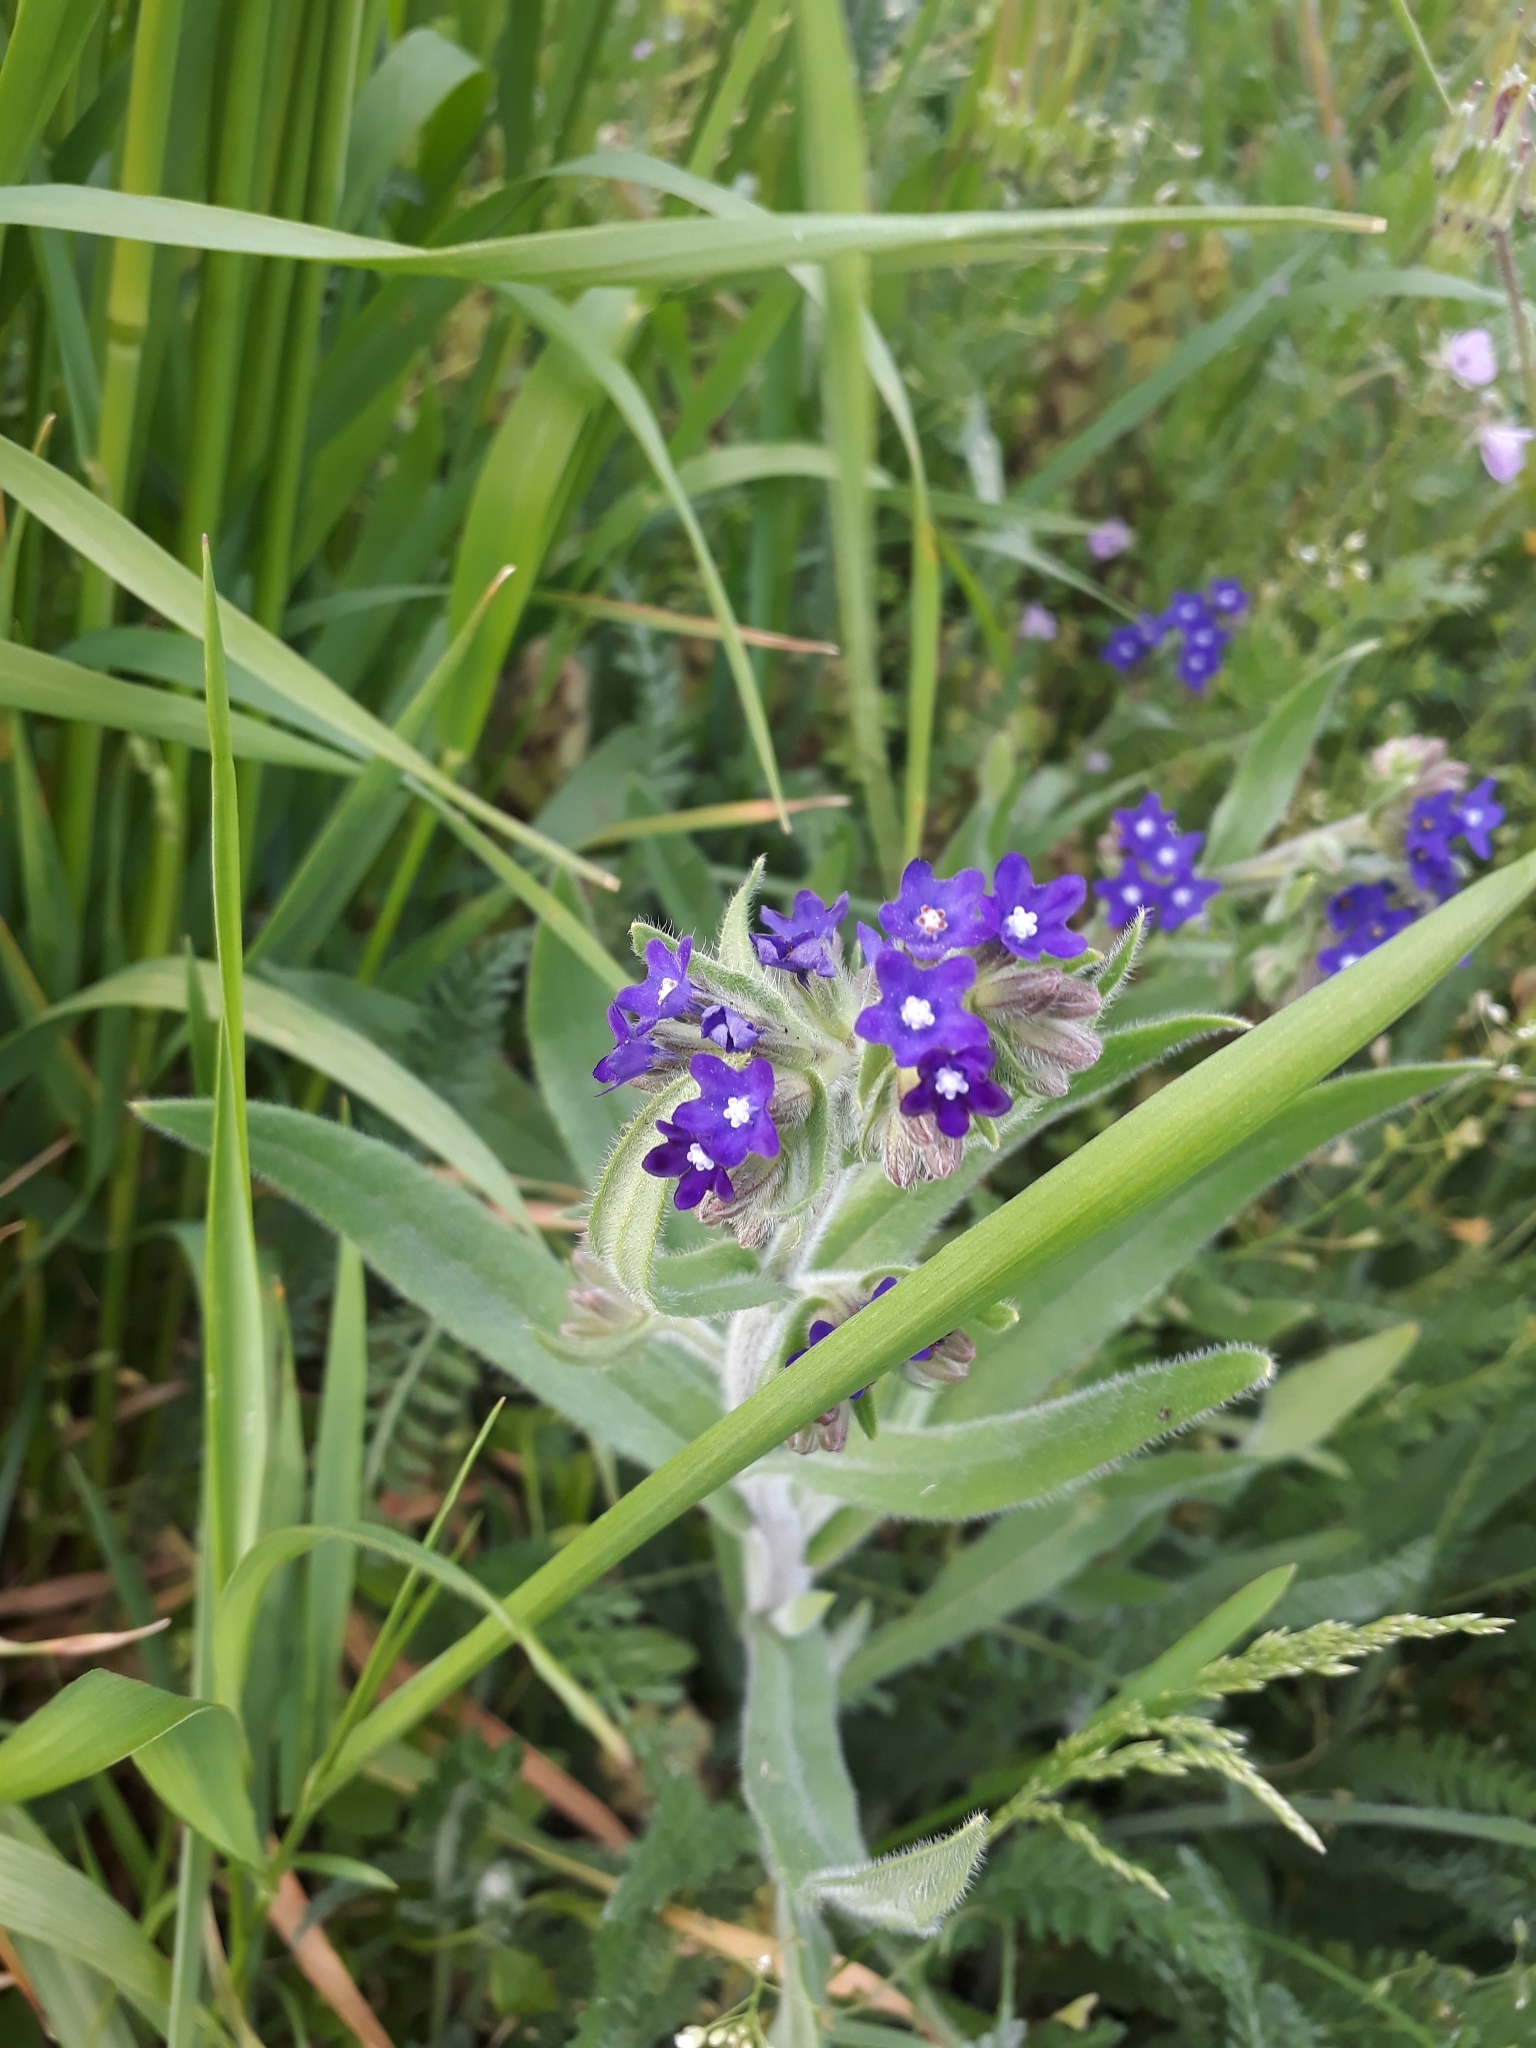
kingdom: Plantae
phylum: Tracheophyta
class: Magnoliopsida
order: Boraginales
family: Boraginaceae
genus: Anchusa
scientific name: Anchusa officinalis
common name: Alkanet
